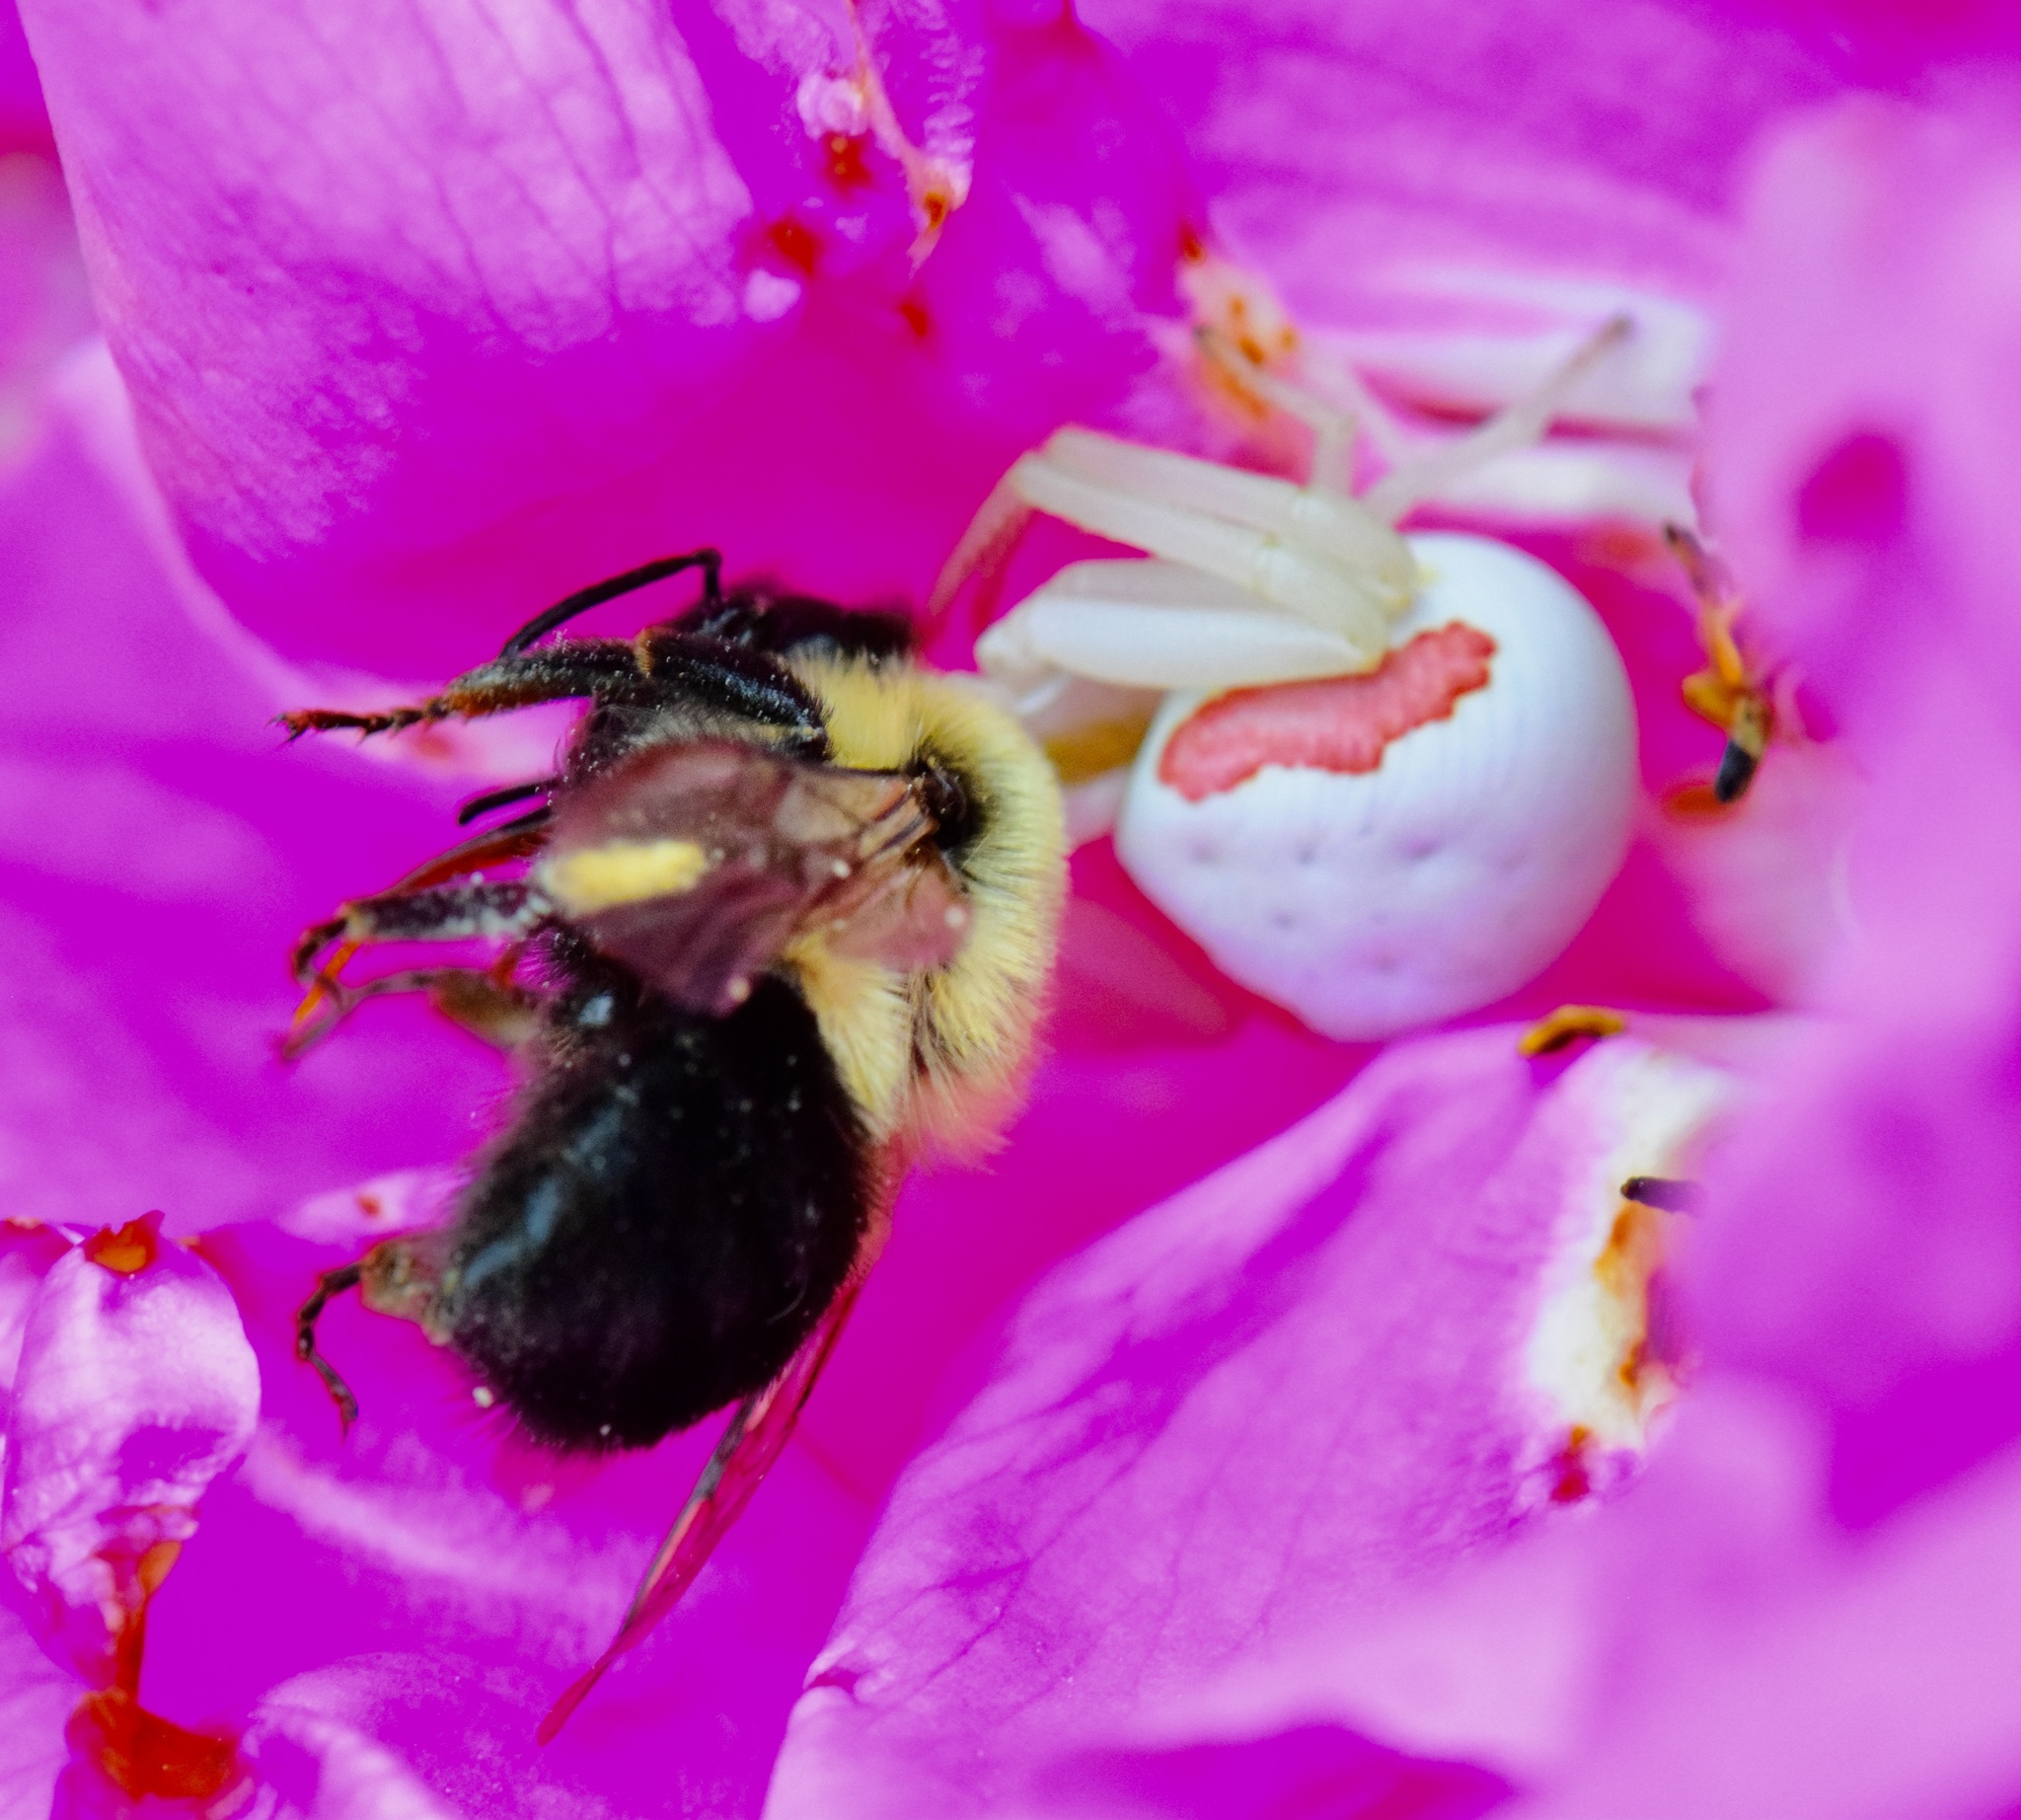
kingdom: Animalia
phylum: Arthropoda
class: Insecta
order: Hymenoptera
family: Apidae
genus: Bombus
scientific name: Bombus impatiens
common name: Common eastern bumble bee
